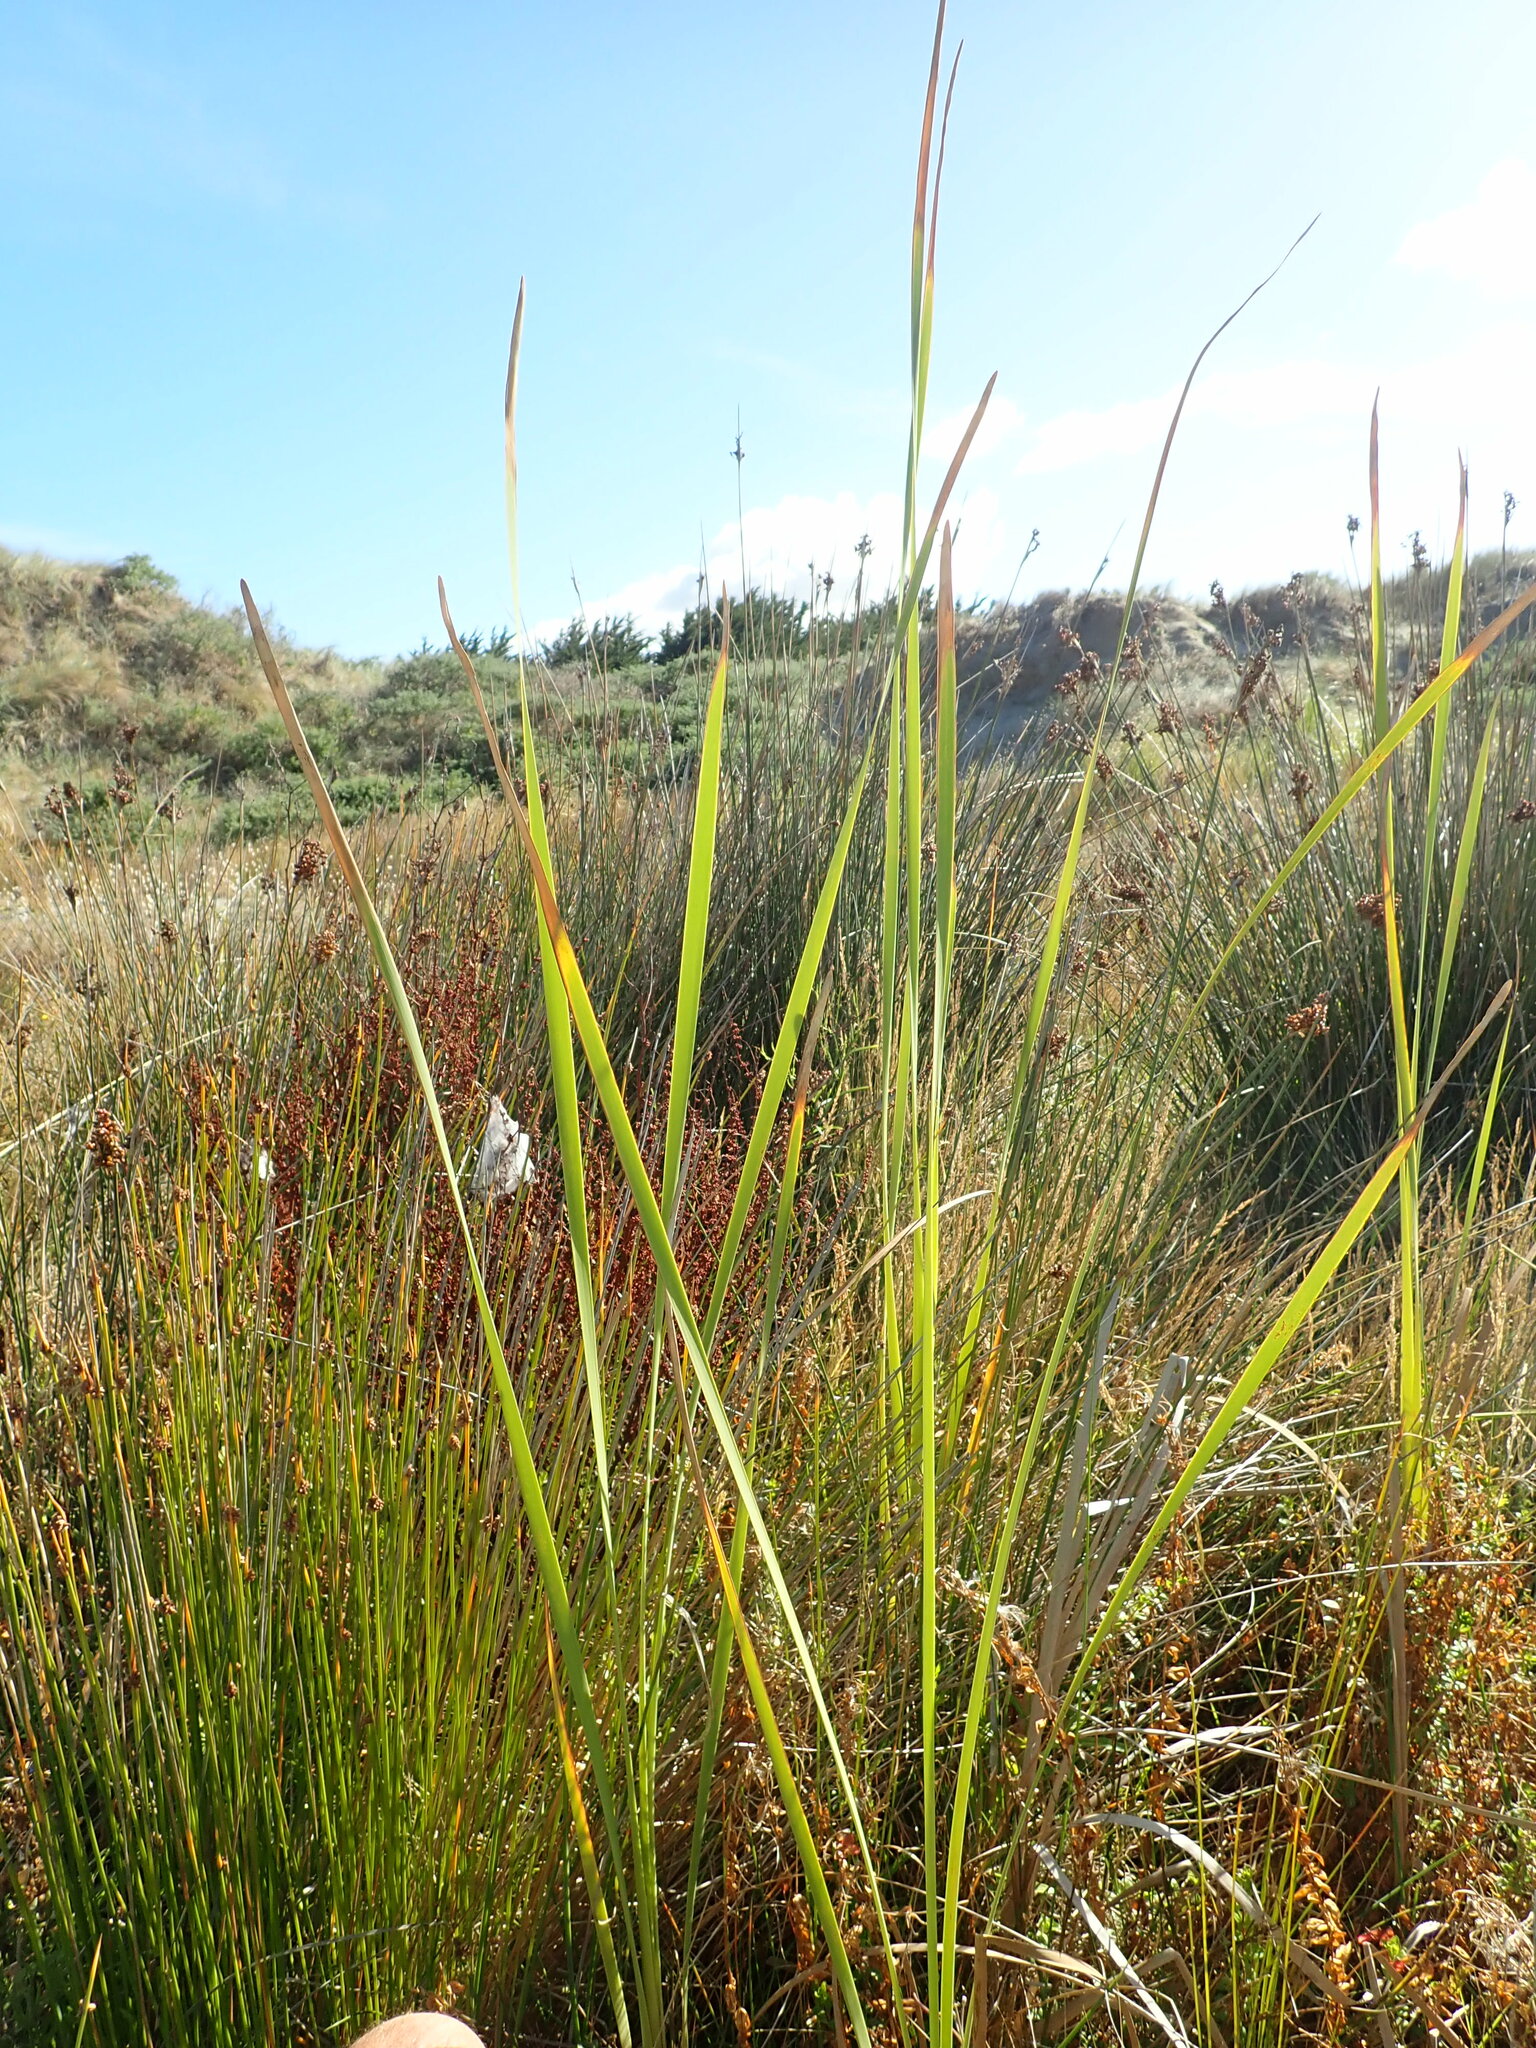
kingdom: Plantae
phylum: Tracheophyta
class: Liliopsida
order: Poales
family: Typhaceae
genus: Typha
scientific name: Typha orientalis
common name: Bullrush
